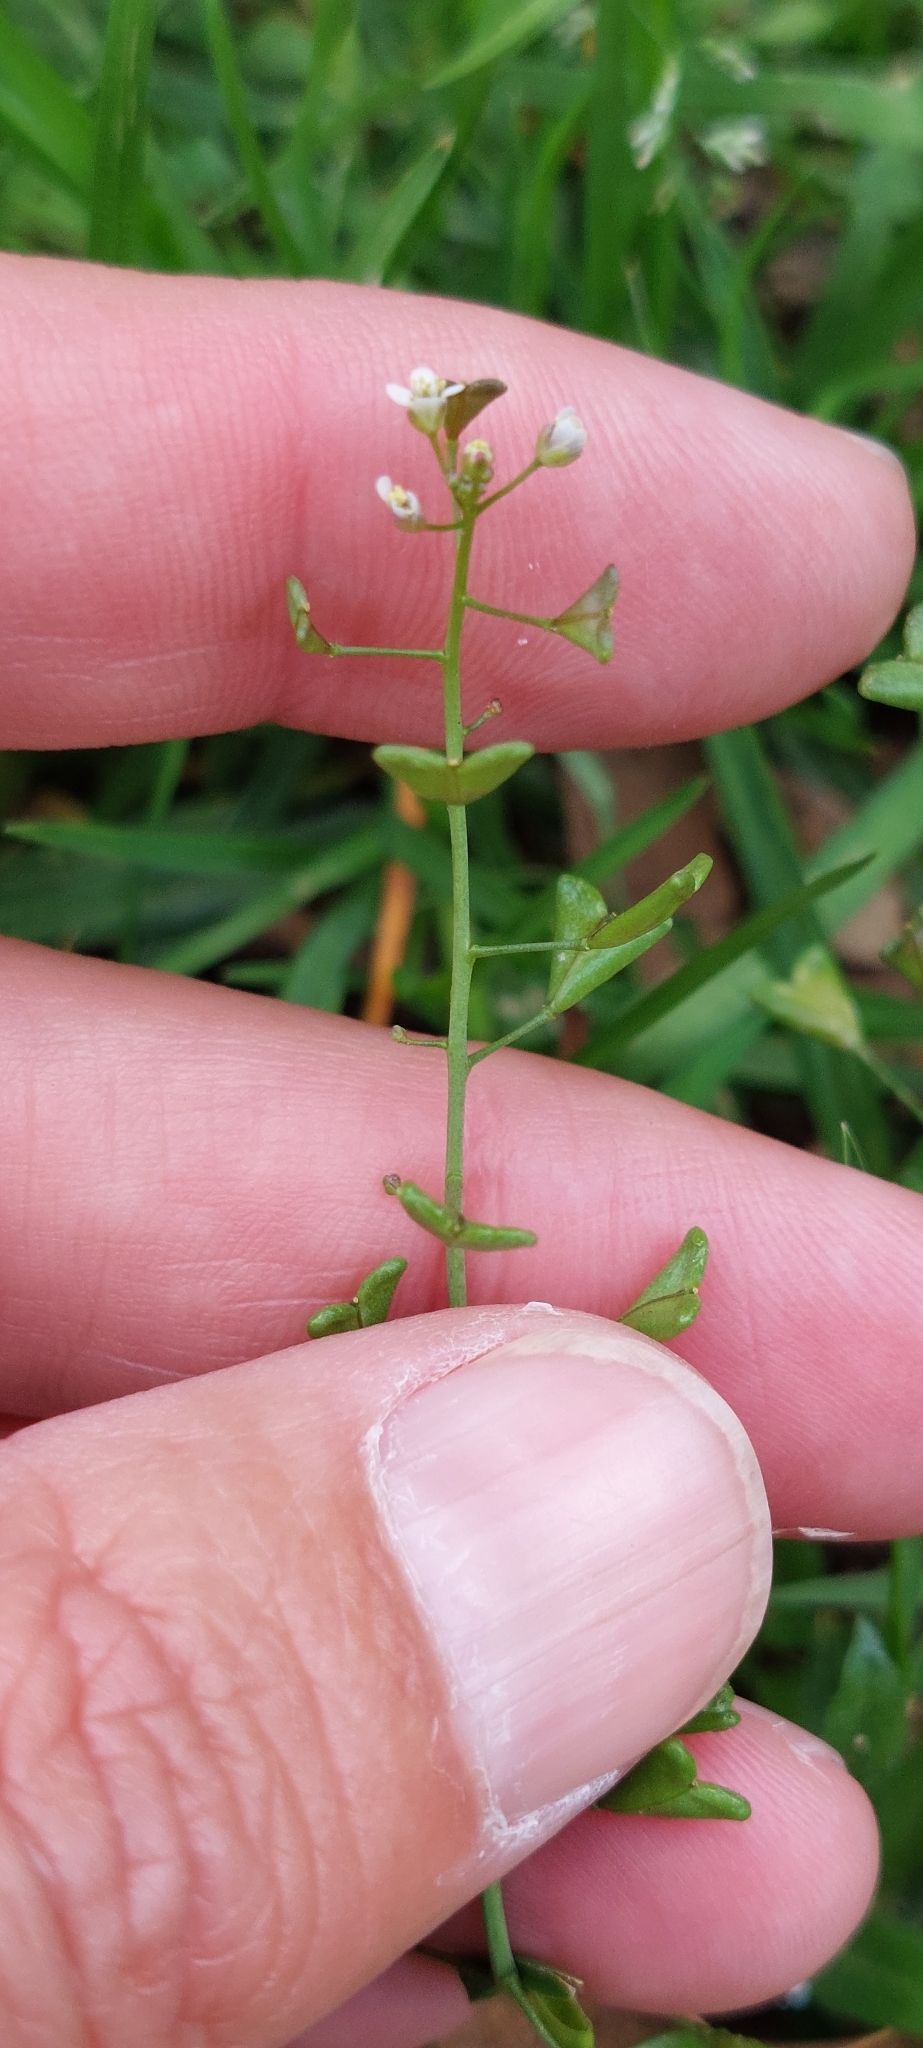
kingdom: Plantae
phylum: Tracheophyta
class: Magnoliopsida
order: Brassicales
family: Brassicaceae
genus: Capsella
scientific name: Capsella bursa-pastoris
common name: Shepherd's purse
